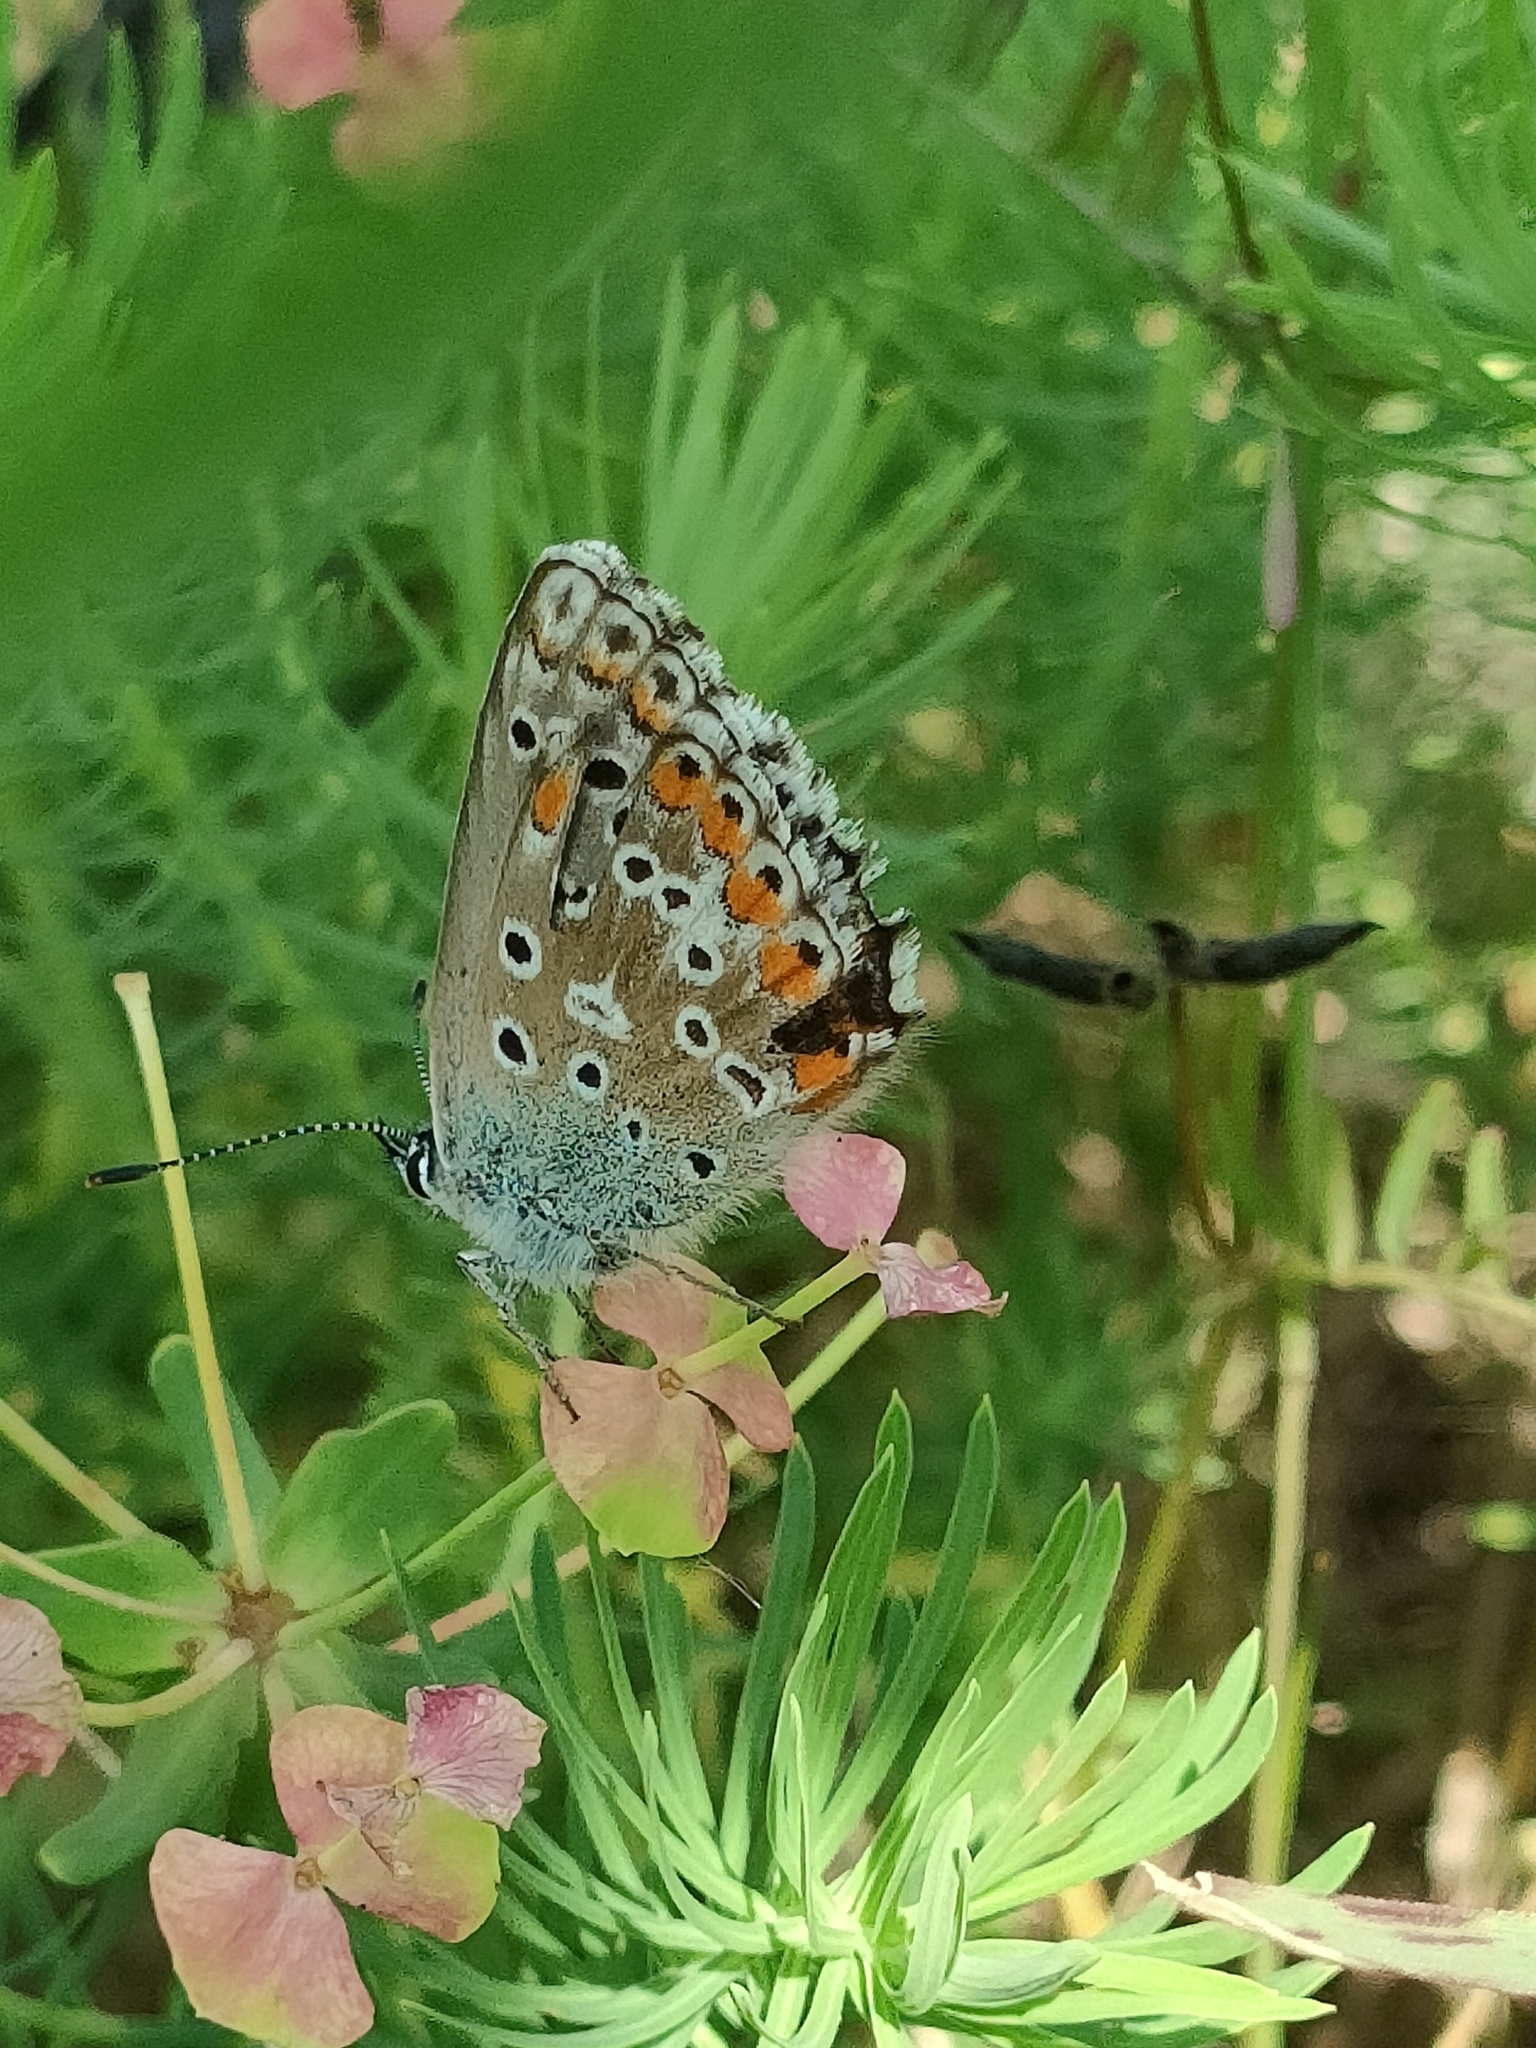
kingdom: Animalia
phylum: Arthropoda
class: Insecta
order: Lepidoptera
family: Lycaenidae
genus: Lysandra
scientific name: Lysandra bellargus
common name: Adonis blue
